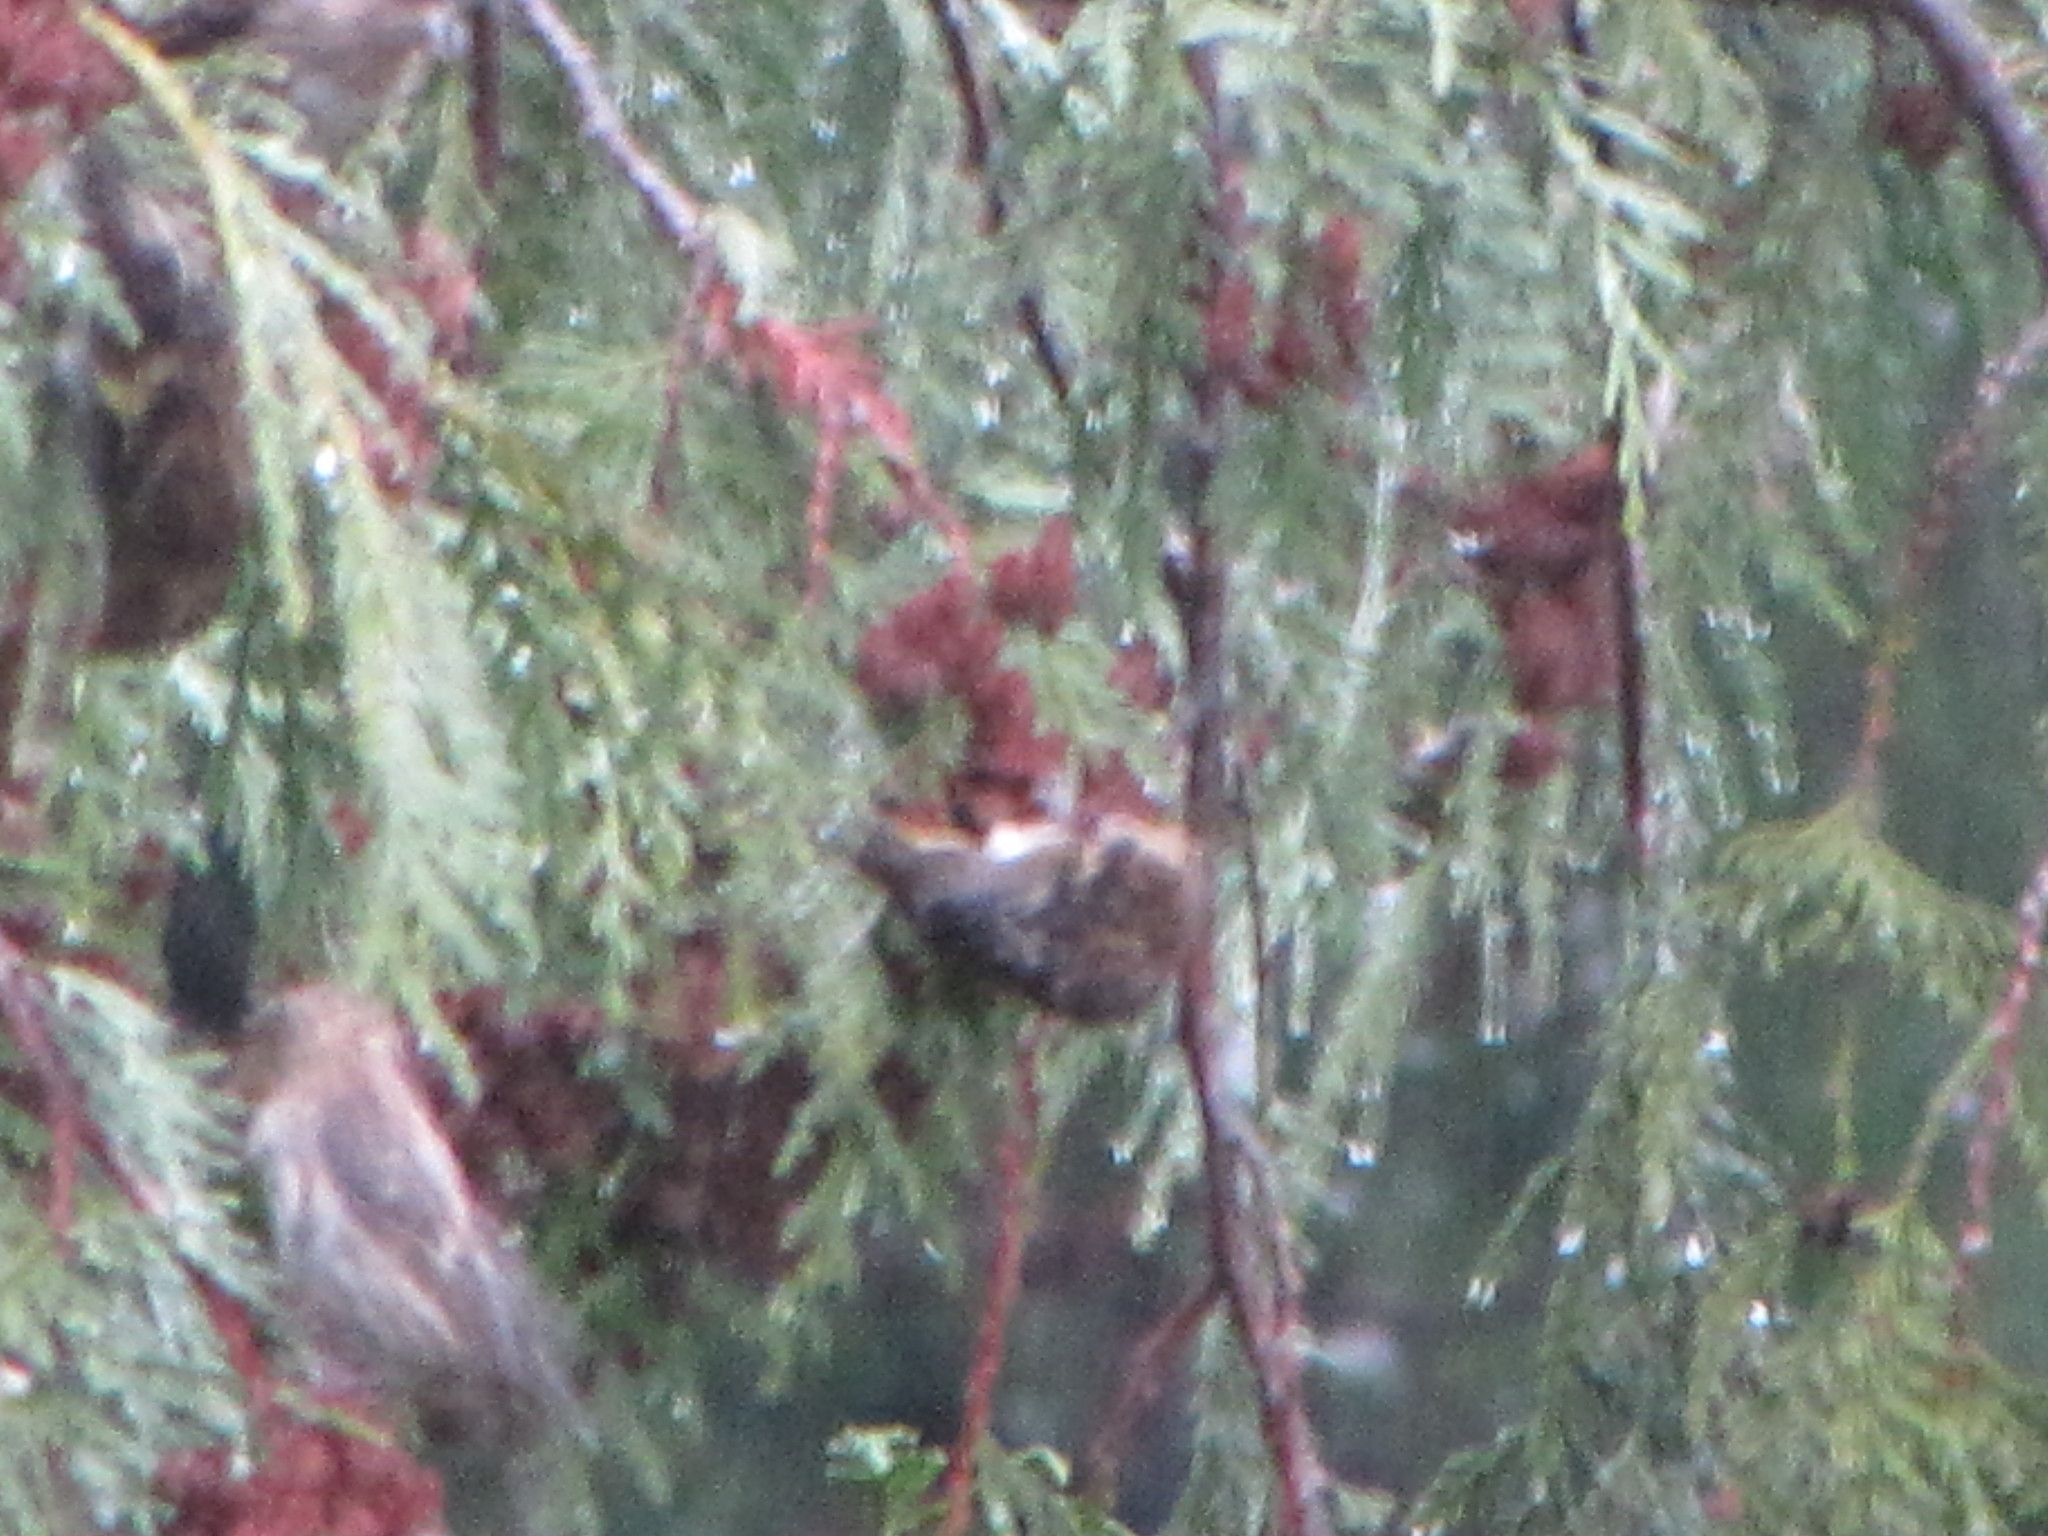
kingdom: Animalia
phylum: Chordata
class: Aves
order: Passeriformes
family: Fringillidae
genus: Spinus
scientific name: Spinus pinus
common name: Pine siskin
